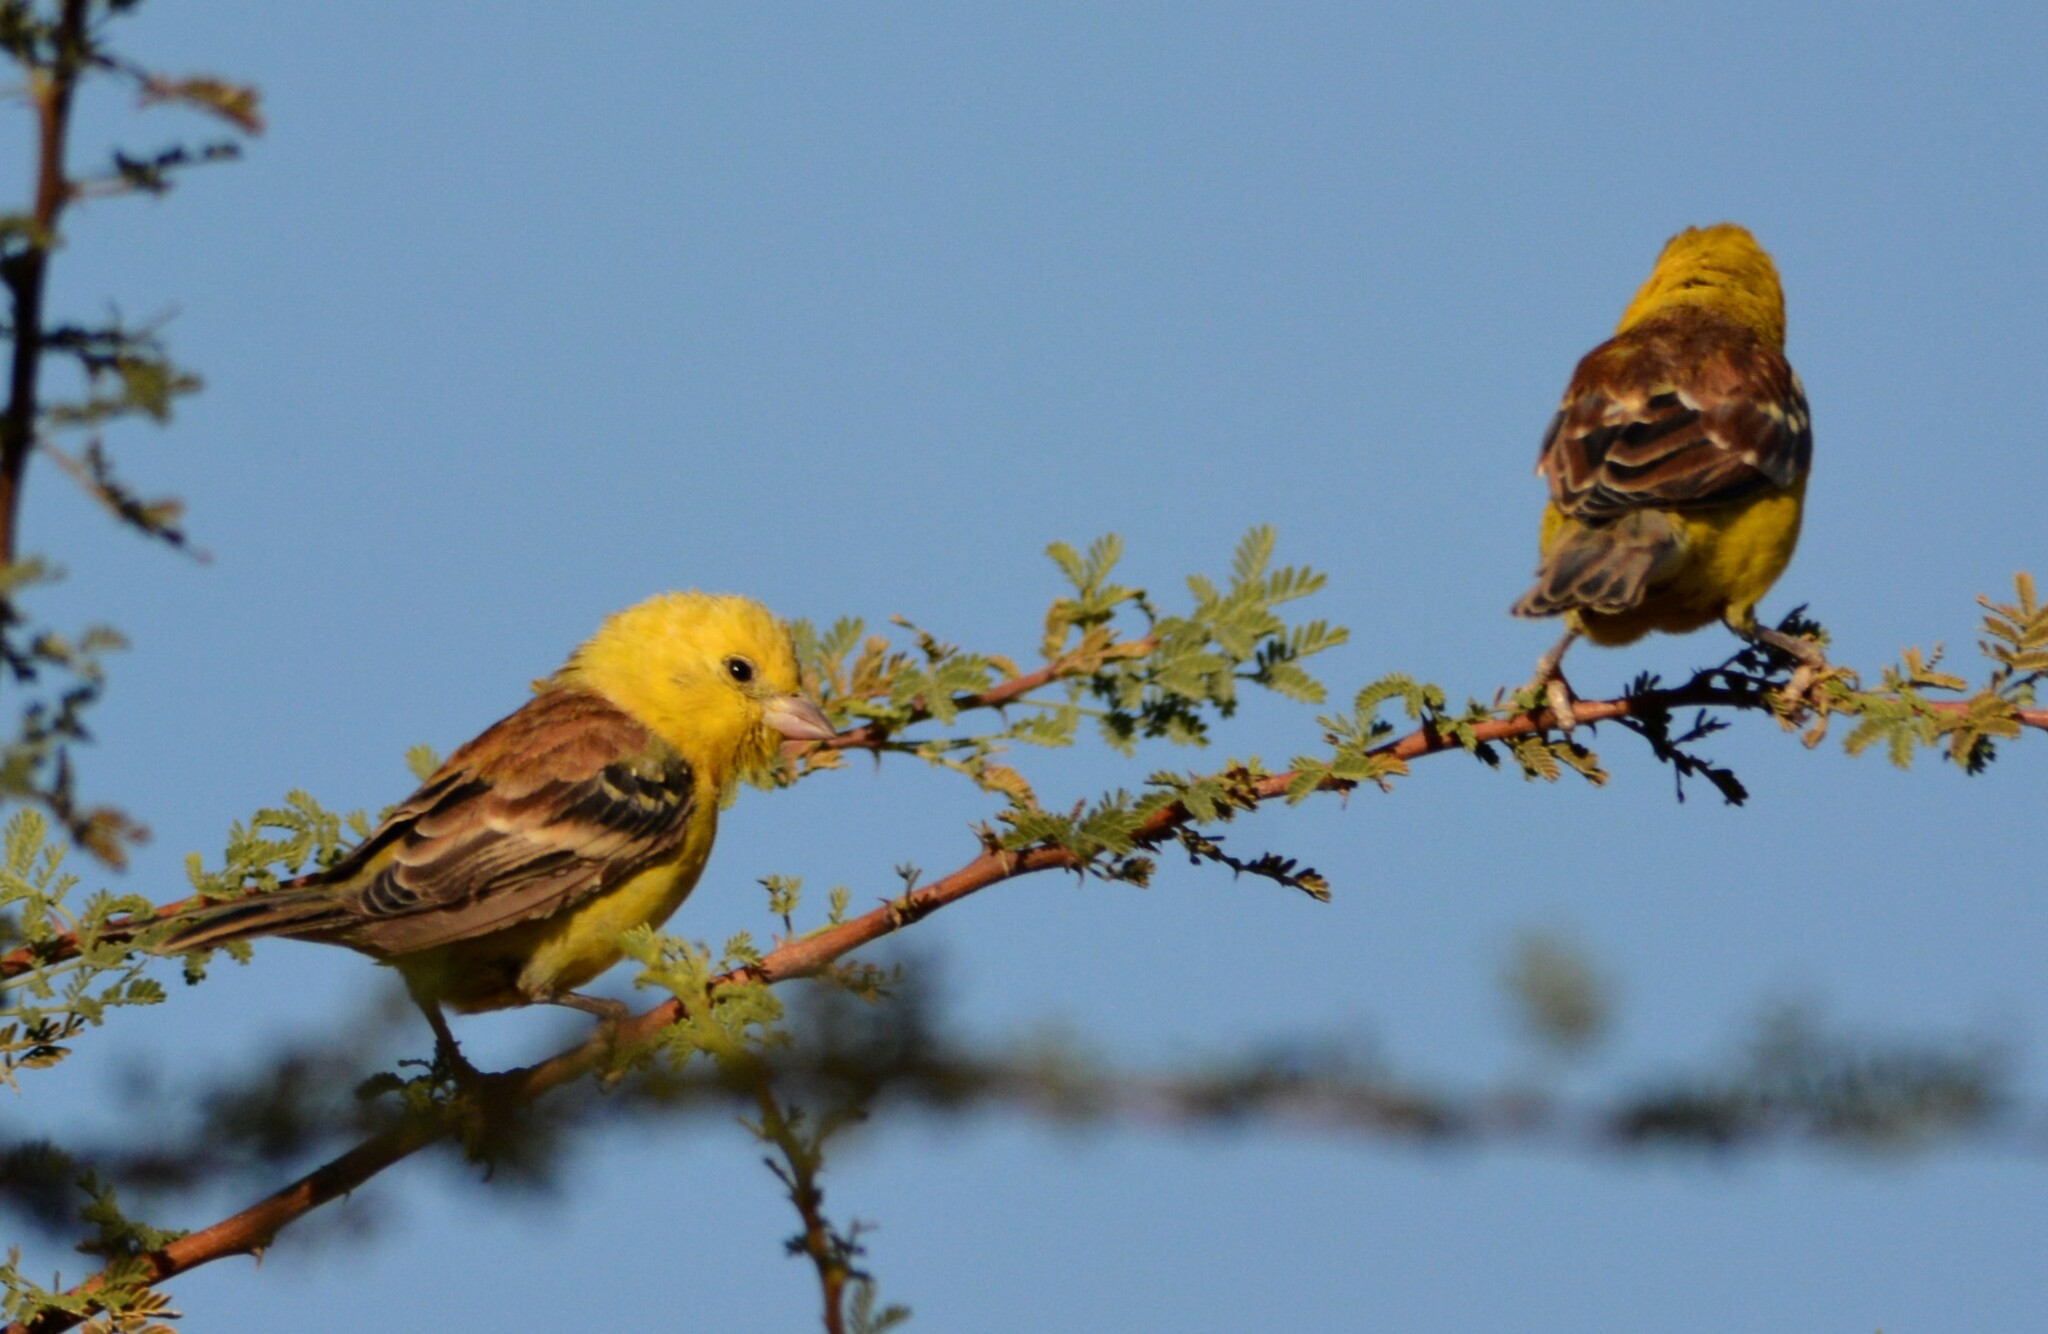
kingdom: Animalia
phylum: Chordata
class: Aves
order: Passeriformes
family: Passeridae
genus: Passer
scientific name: Passer luteus
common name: Sudan golden sparrow
